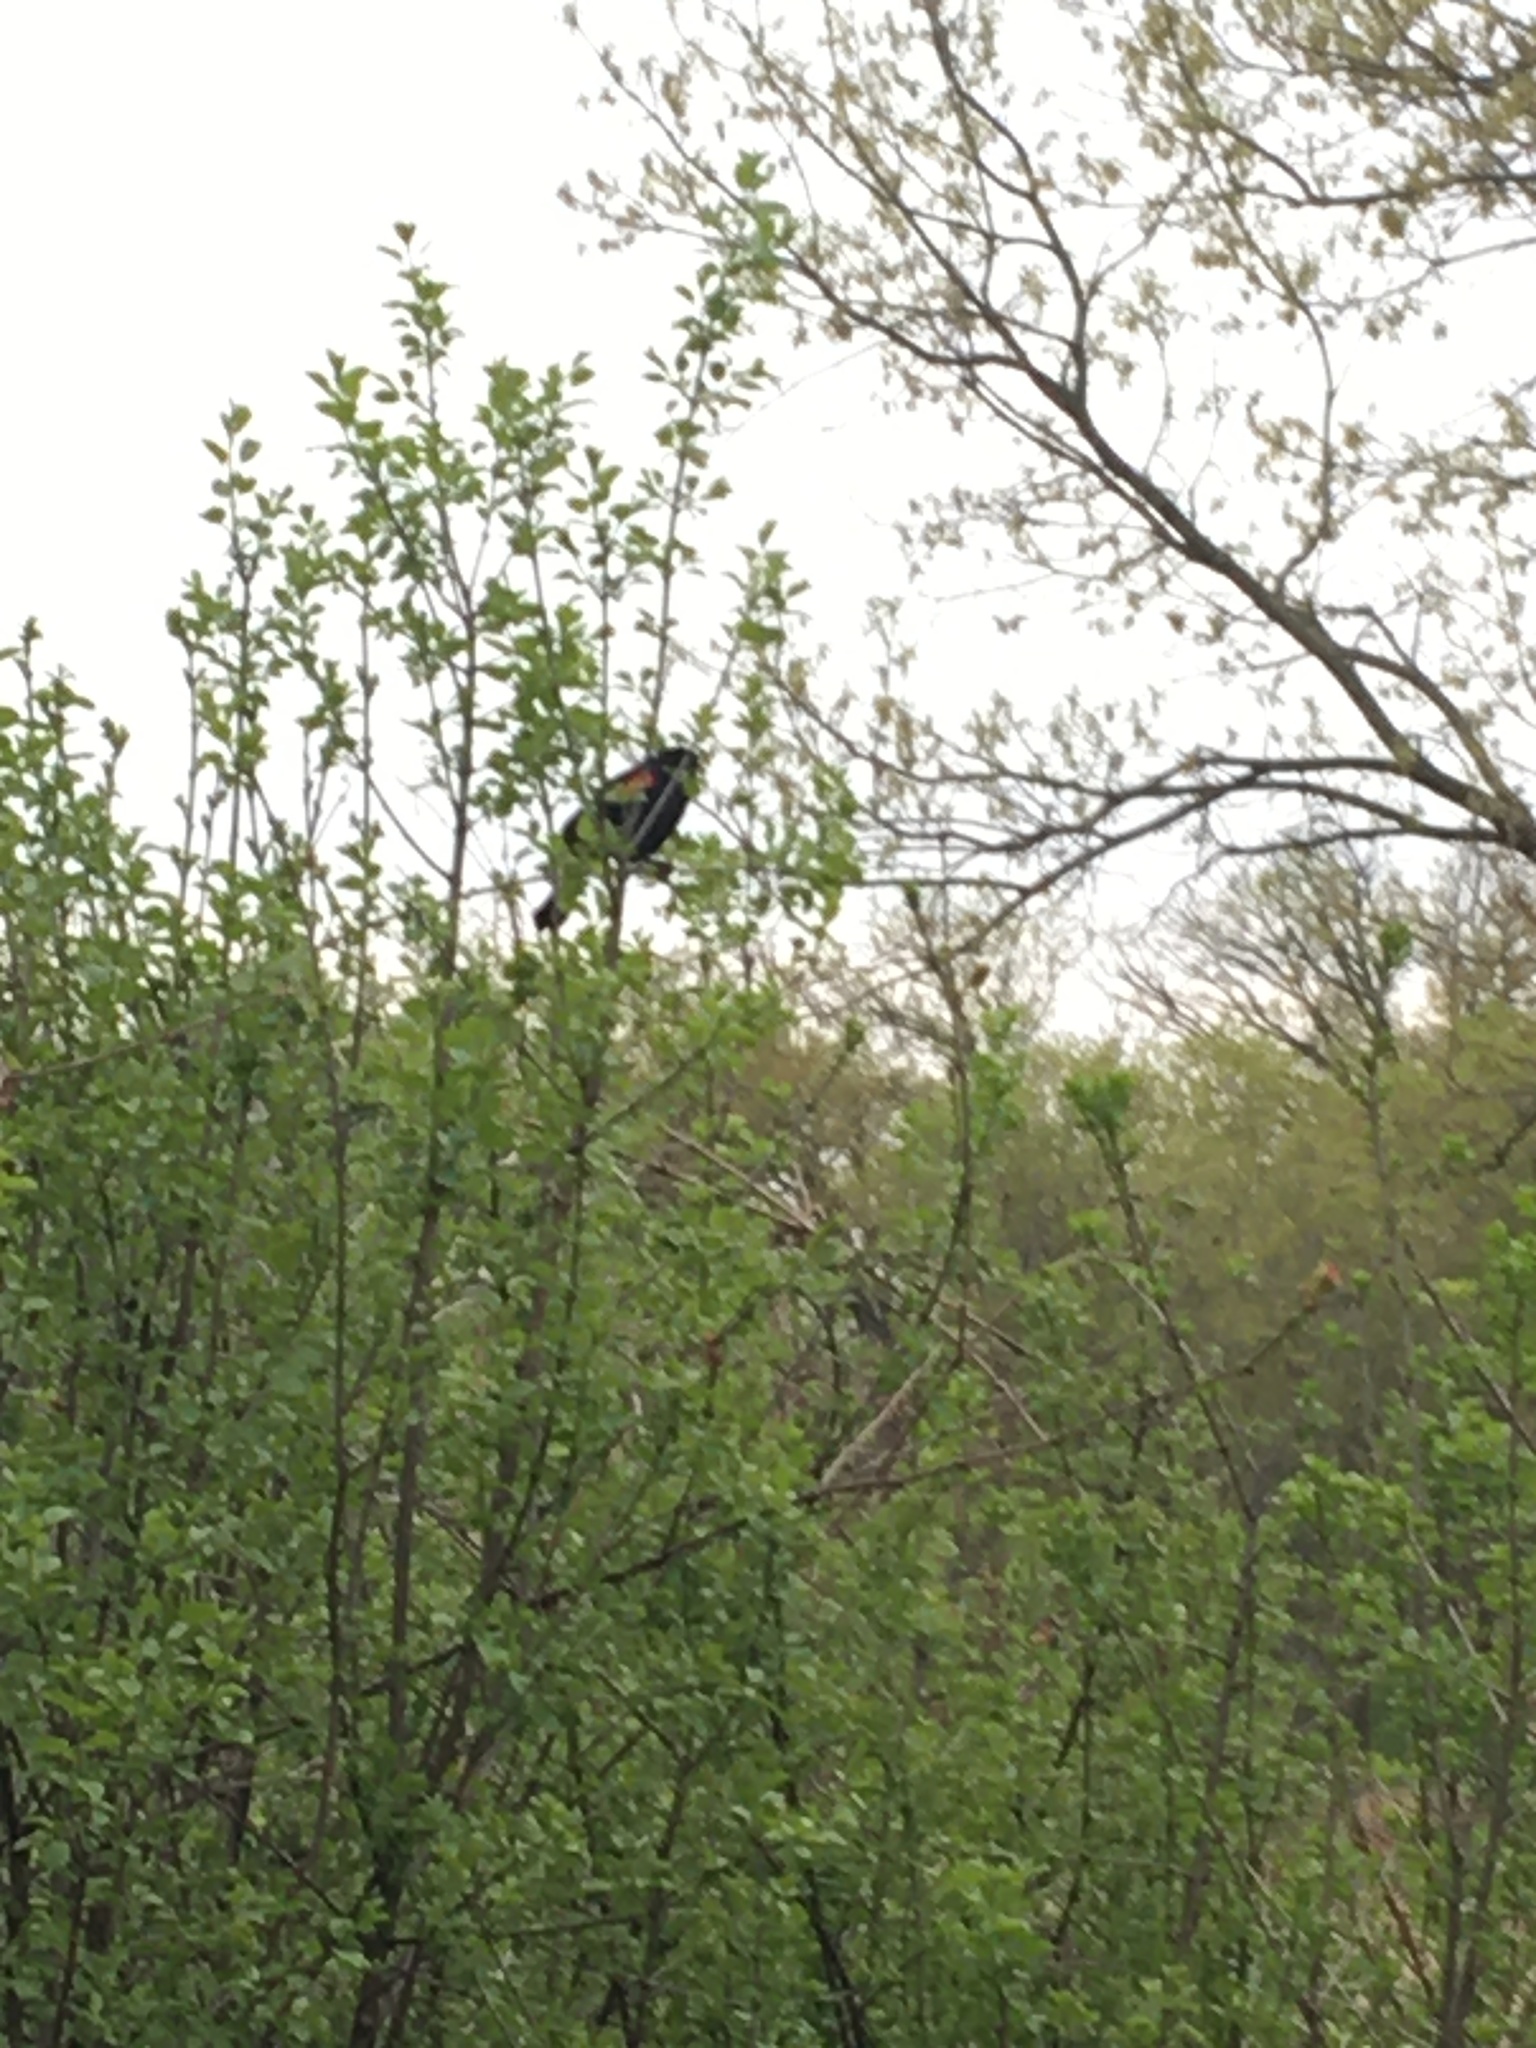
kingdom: Animalia
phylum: Chordata
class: Aves
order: Passeriformes
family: Icteridae
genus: Agelaius
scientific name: Agelaius phoeniceus
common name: Red-winged blackbird
